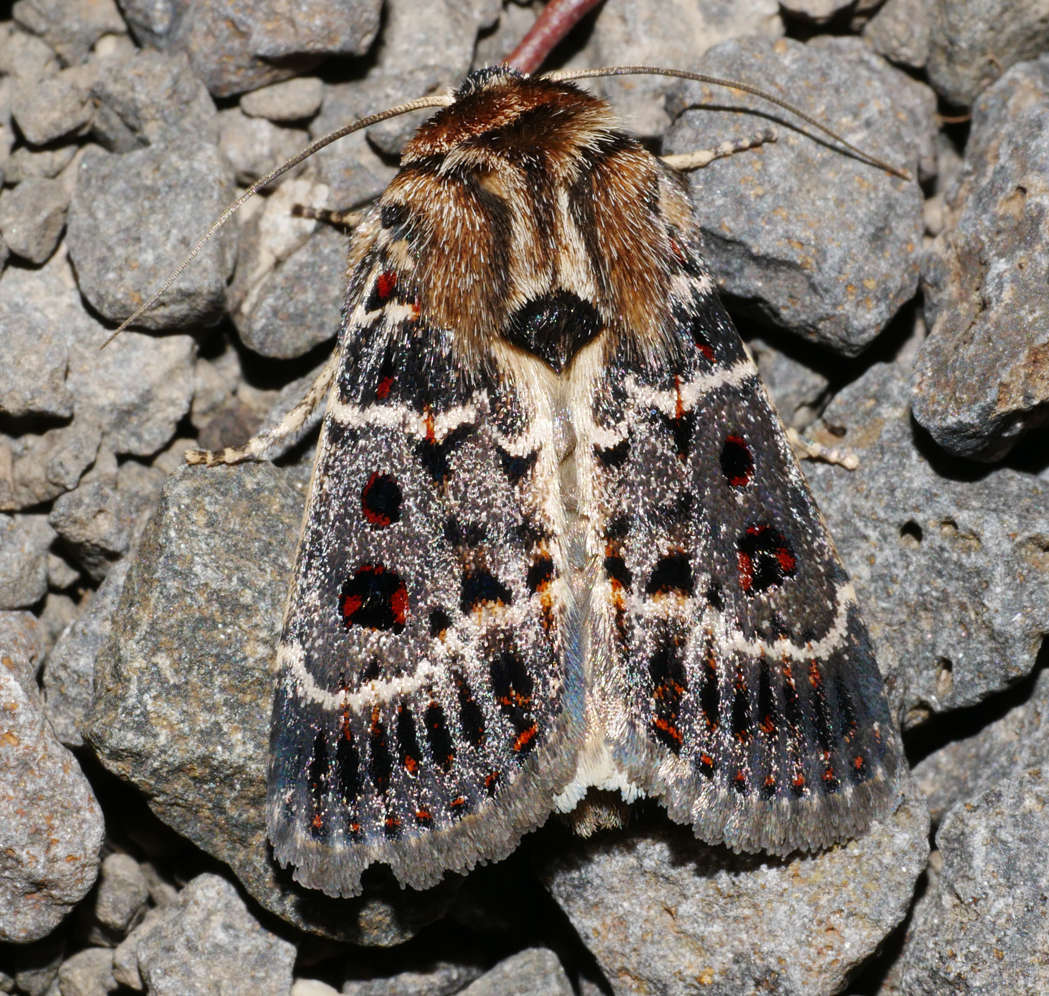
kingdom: Animalia
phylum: Arthropoda
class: Insecta
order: Lepidoptera
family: Noctuidae
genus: Proteuxoa
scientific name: Proteuxoa sanguinipuncta
